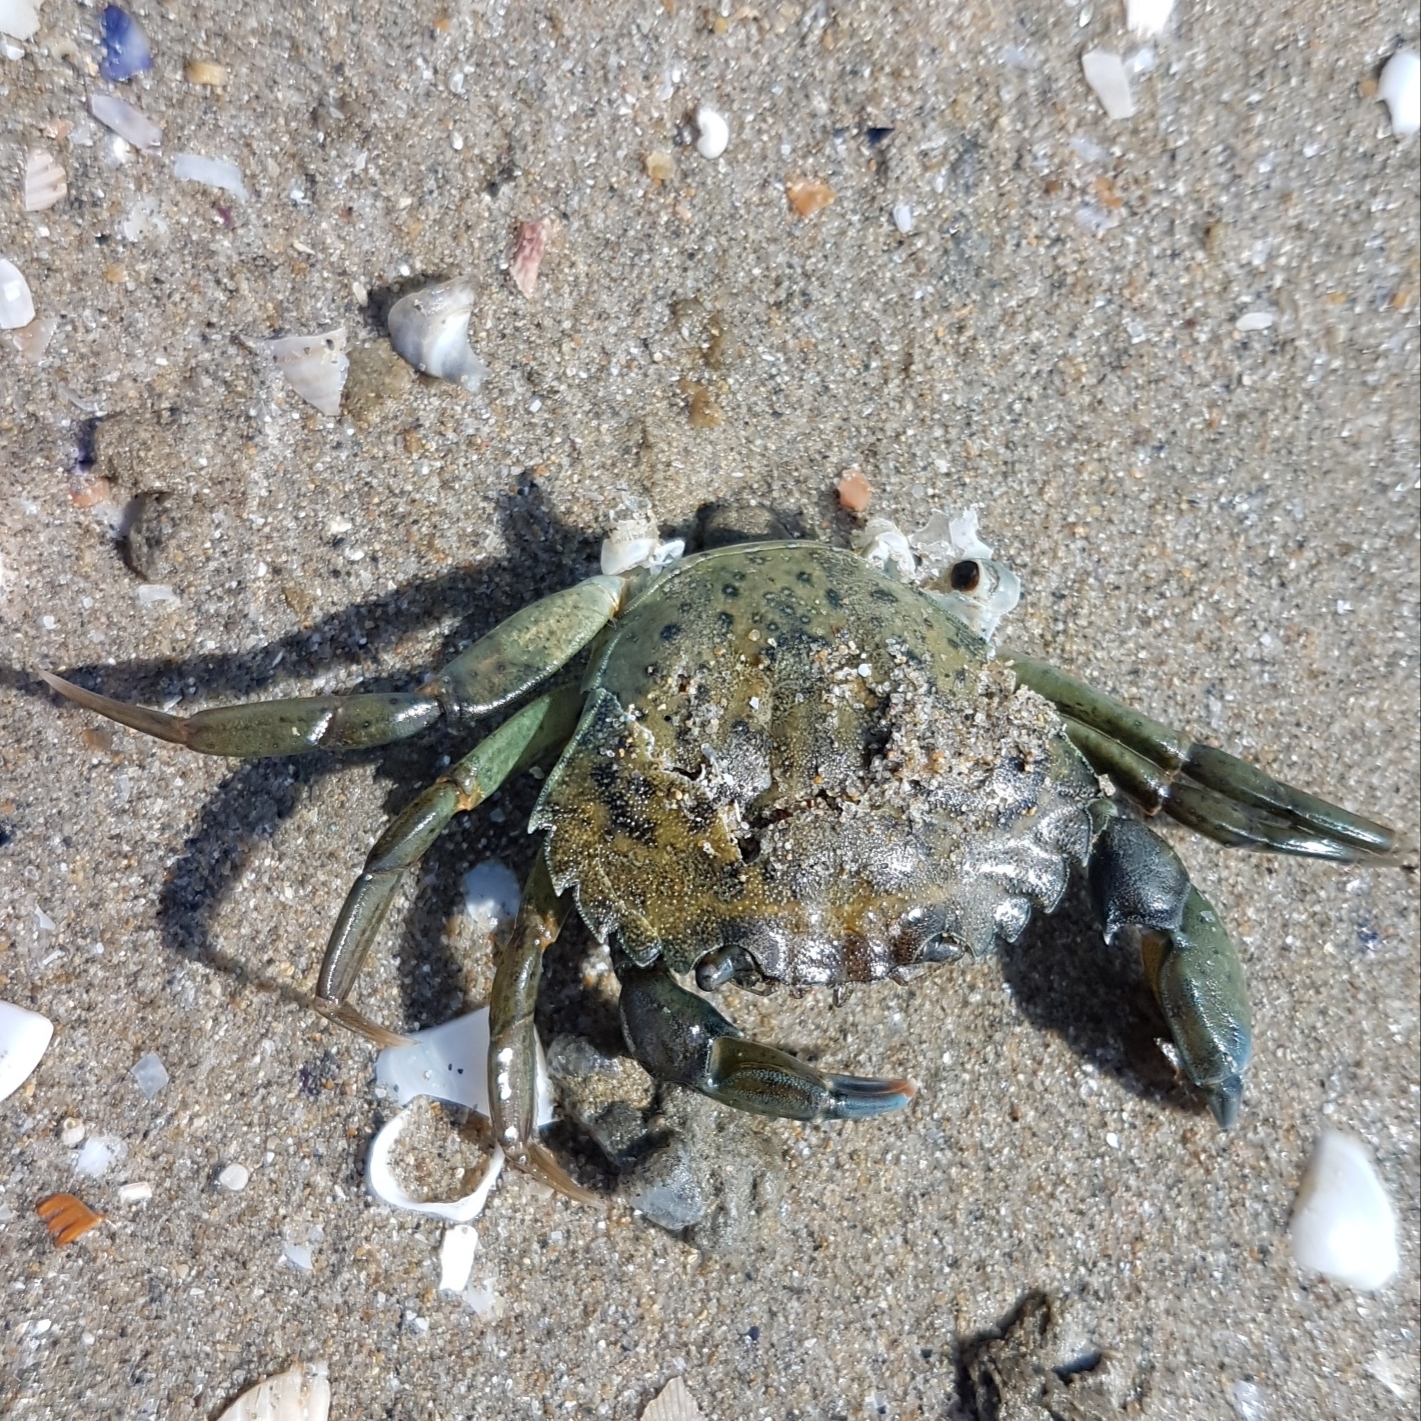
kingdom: Animalia
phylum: Arthropoda
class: Malacostraca
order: Decapoda
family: Carcinidae
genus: Carcinus
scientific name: Carcinus aestuarii
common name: Mediterranean green crab
